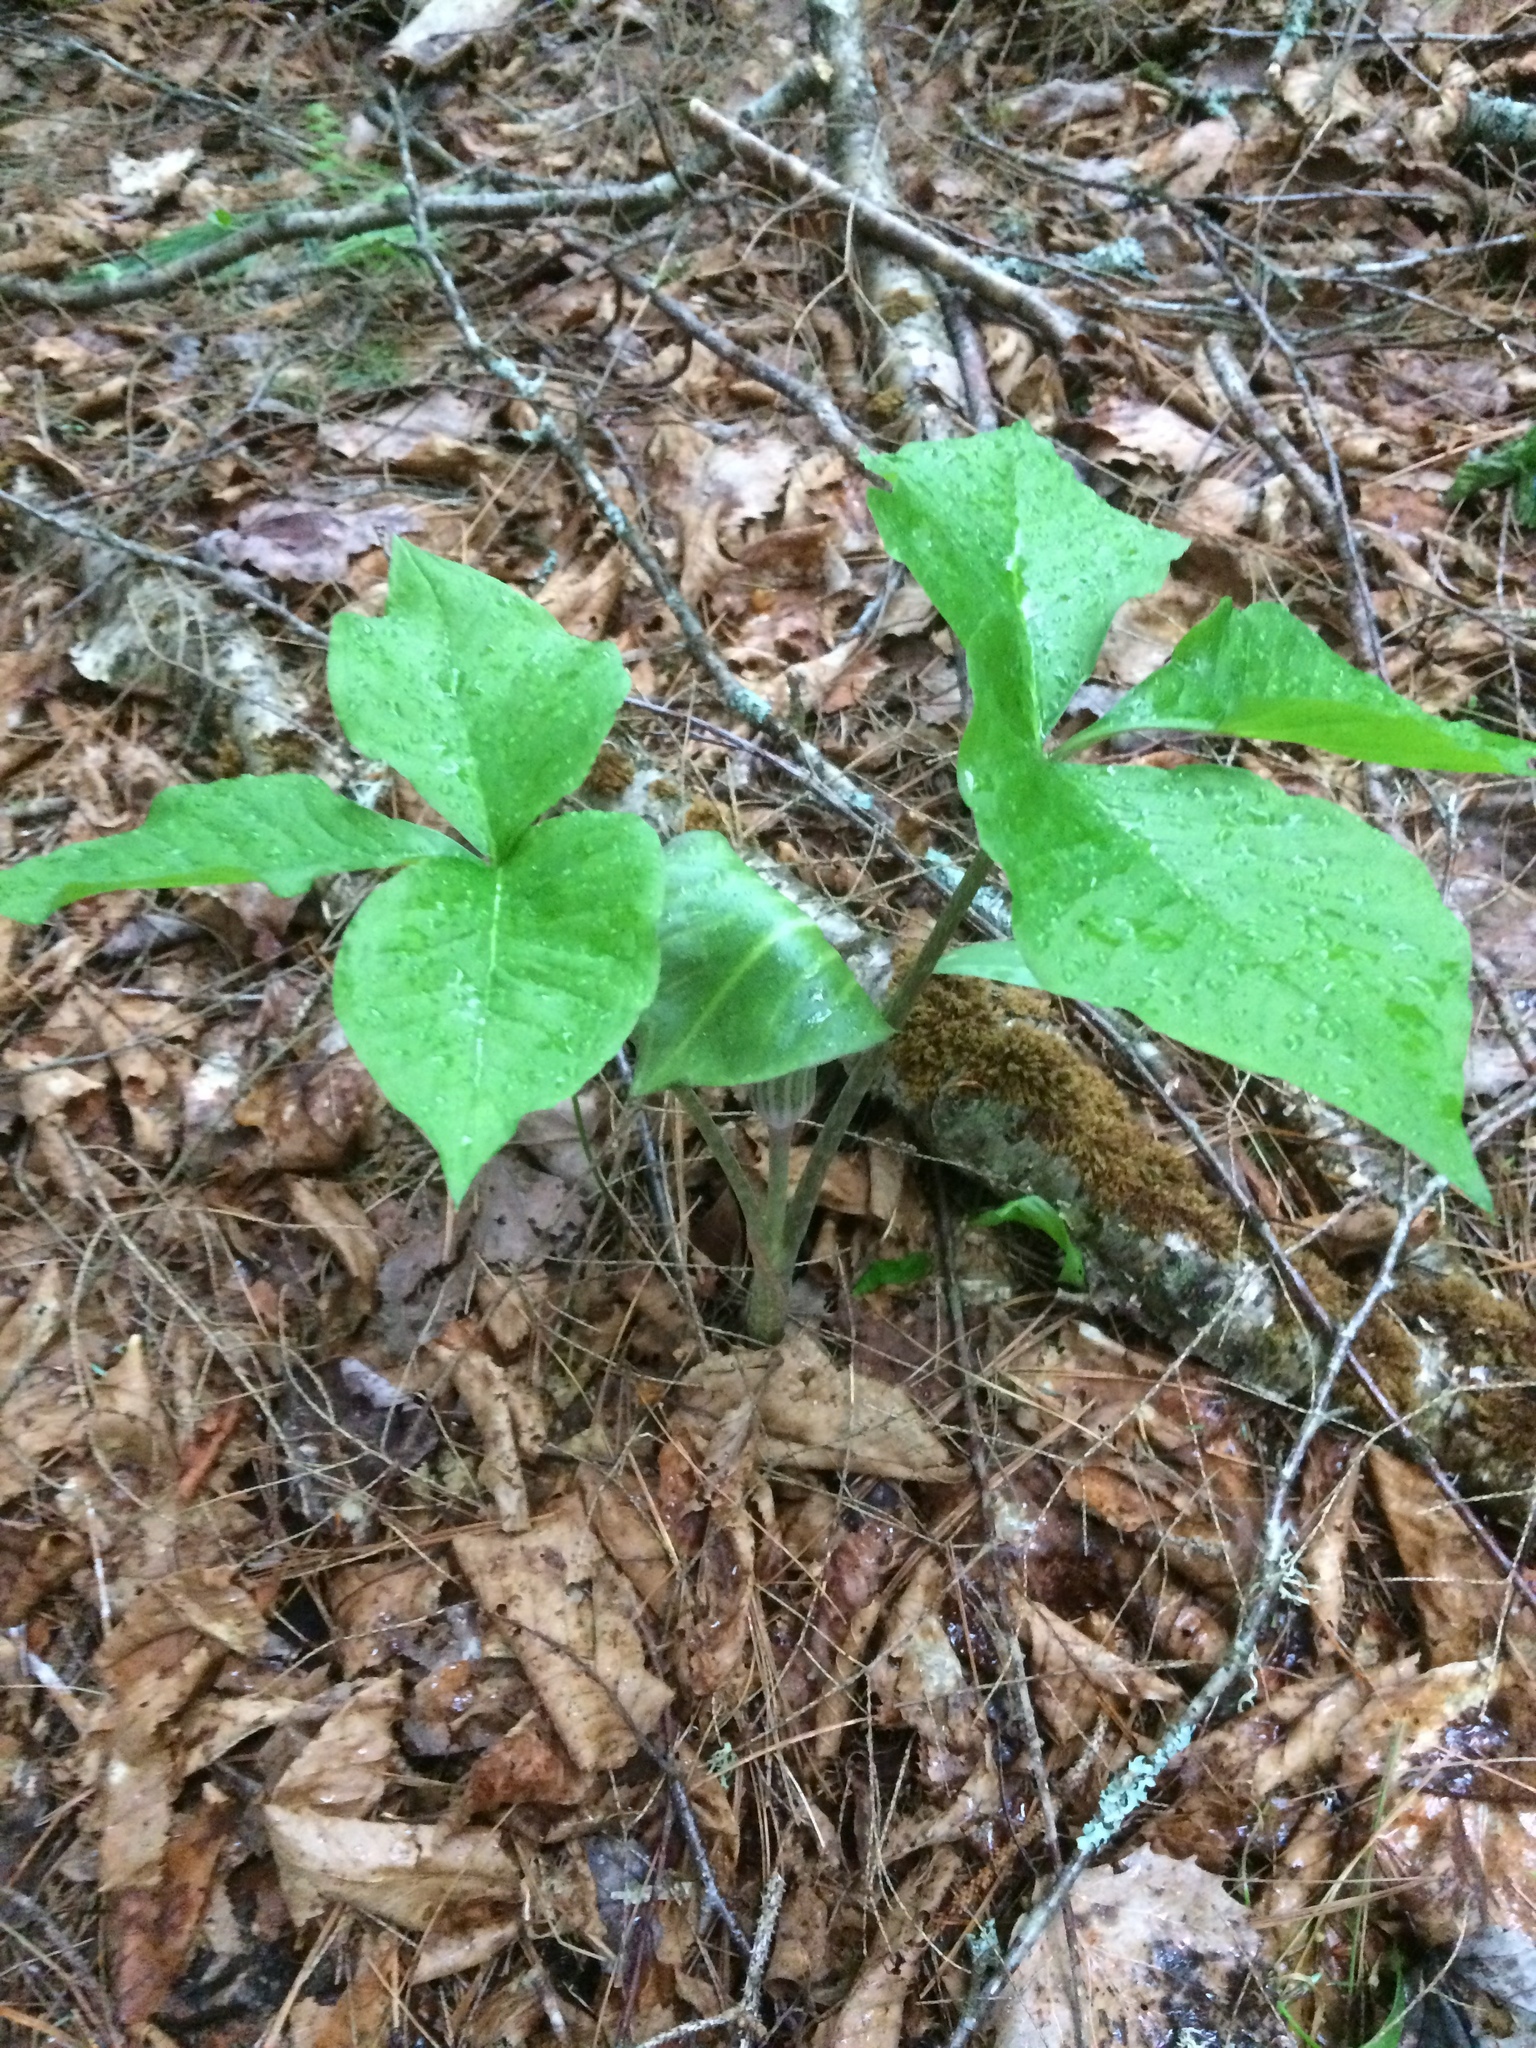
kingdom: Plantae
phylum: Tracheophyta
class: Liliopsida
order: Alismatales
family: Araceae
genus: Arisaema
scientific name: Arisaema triphyllum
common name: Jack-in-the-pulpit
